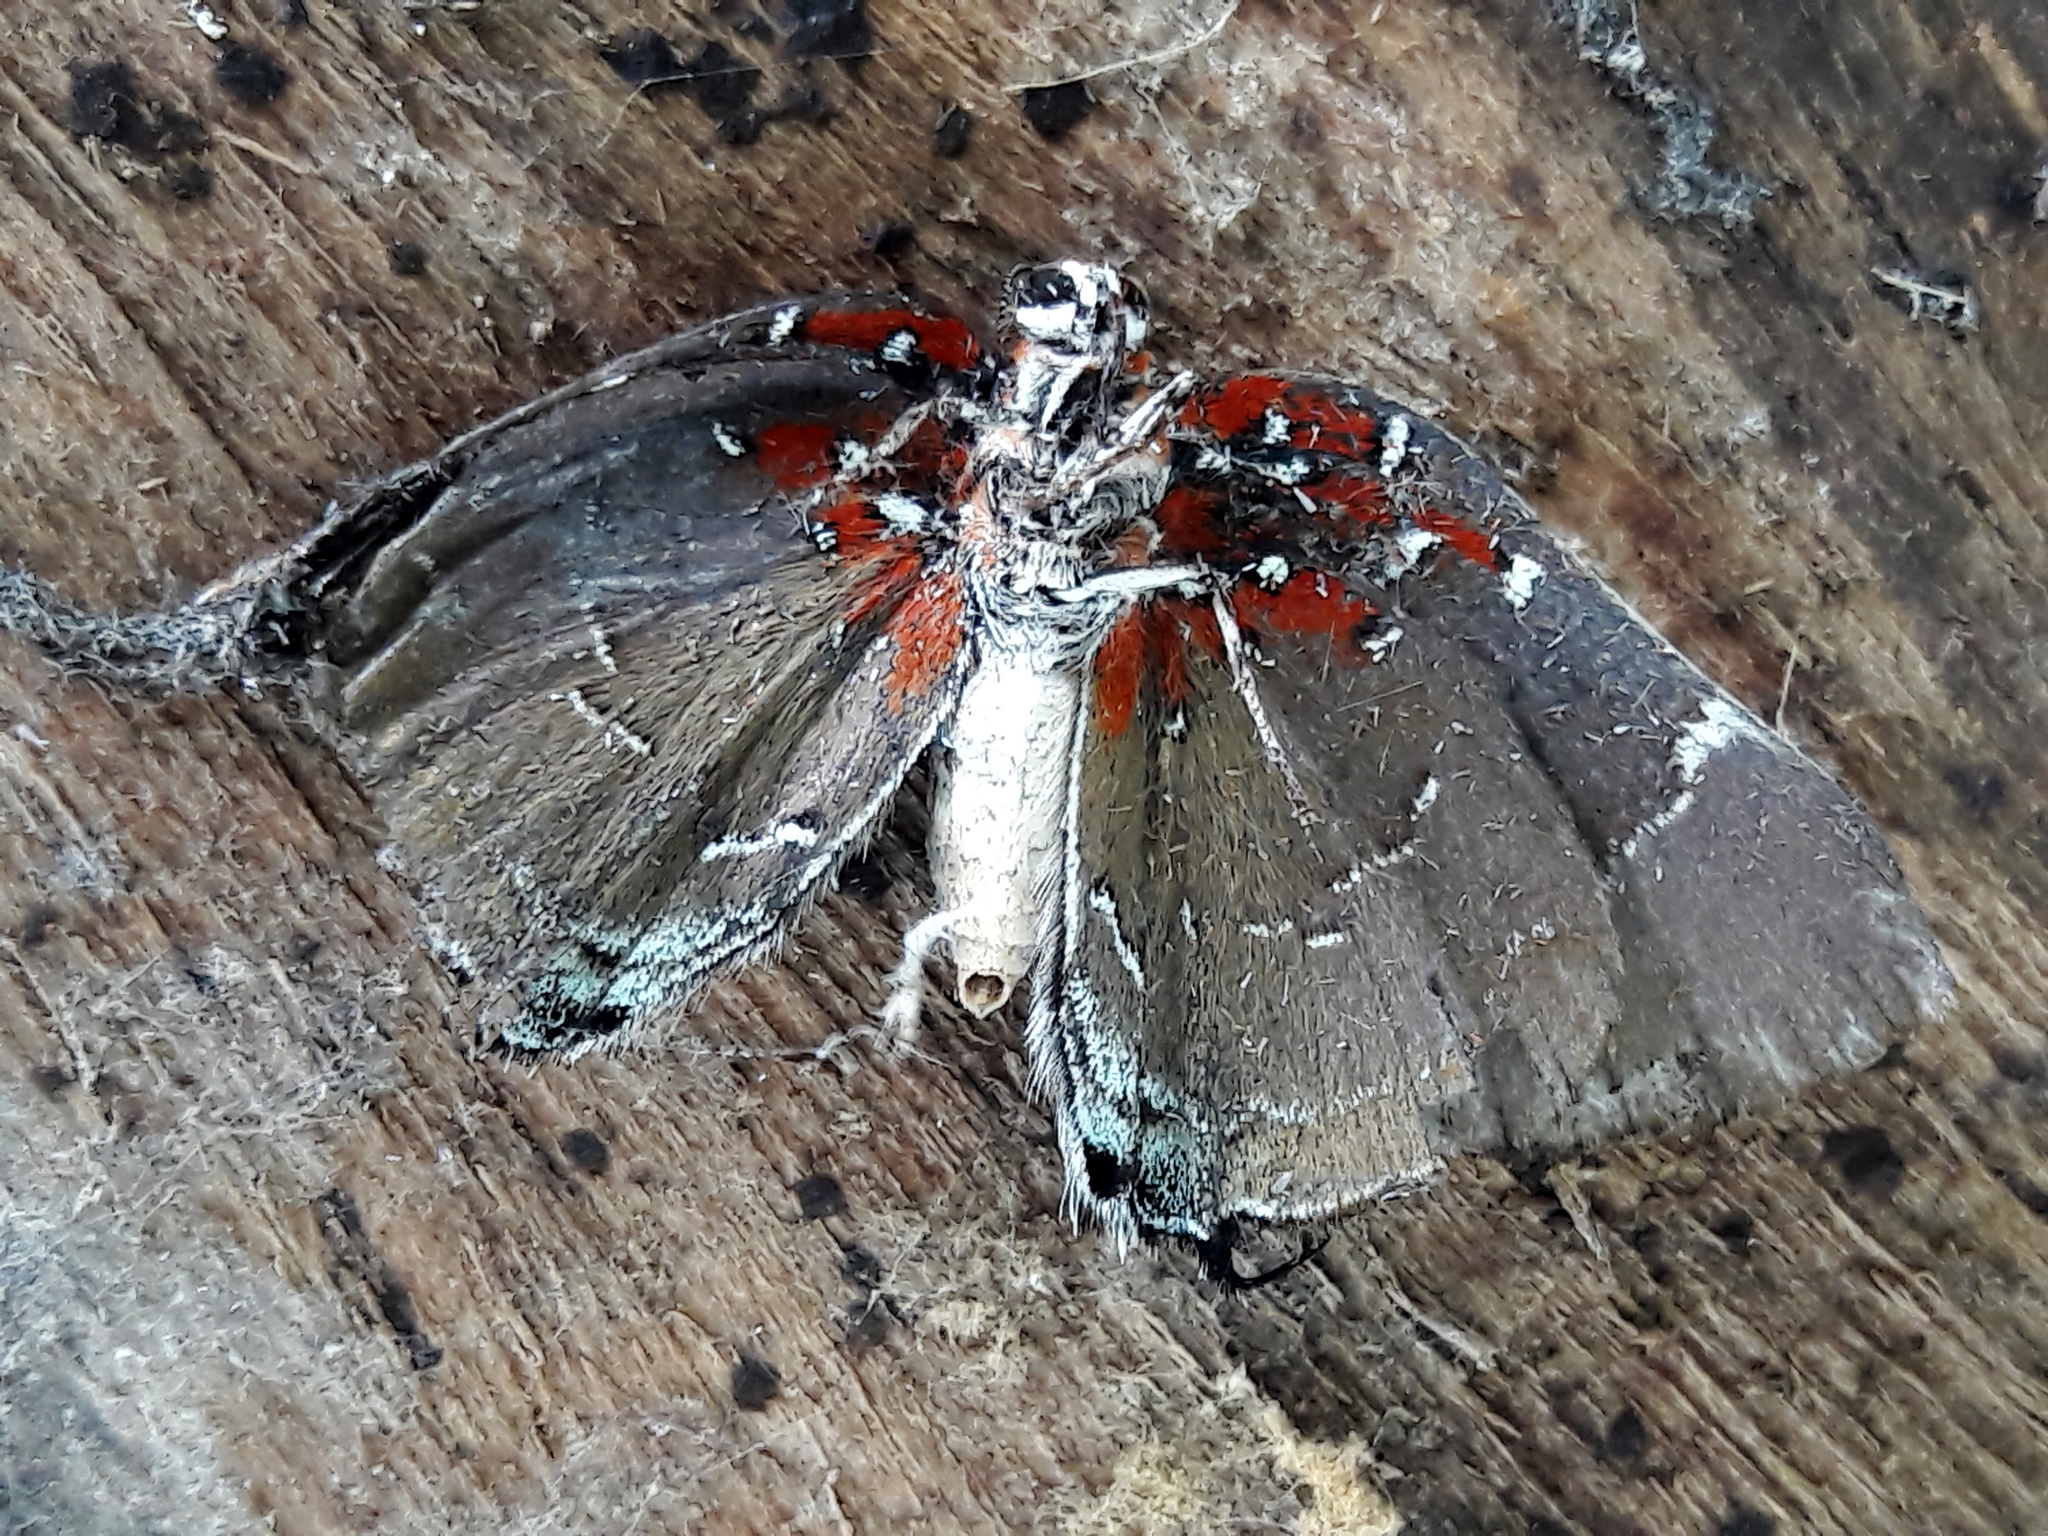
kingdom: Animalia
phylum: Arthropoda
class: Insecta
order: Lepidoptera
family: Lycaenidae
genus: Atlides
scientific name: Atlides Brangas neora
